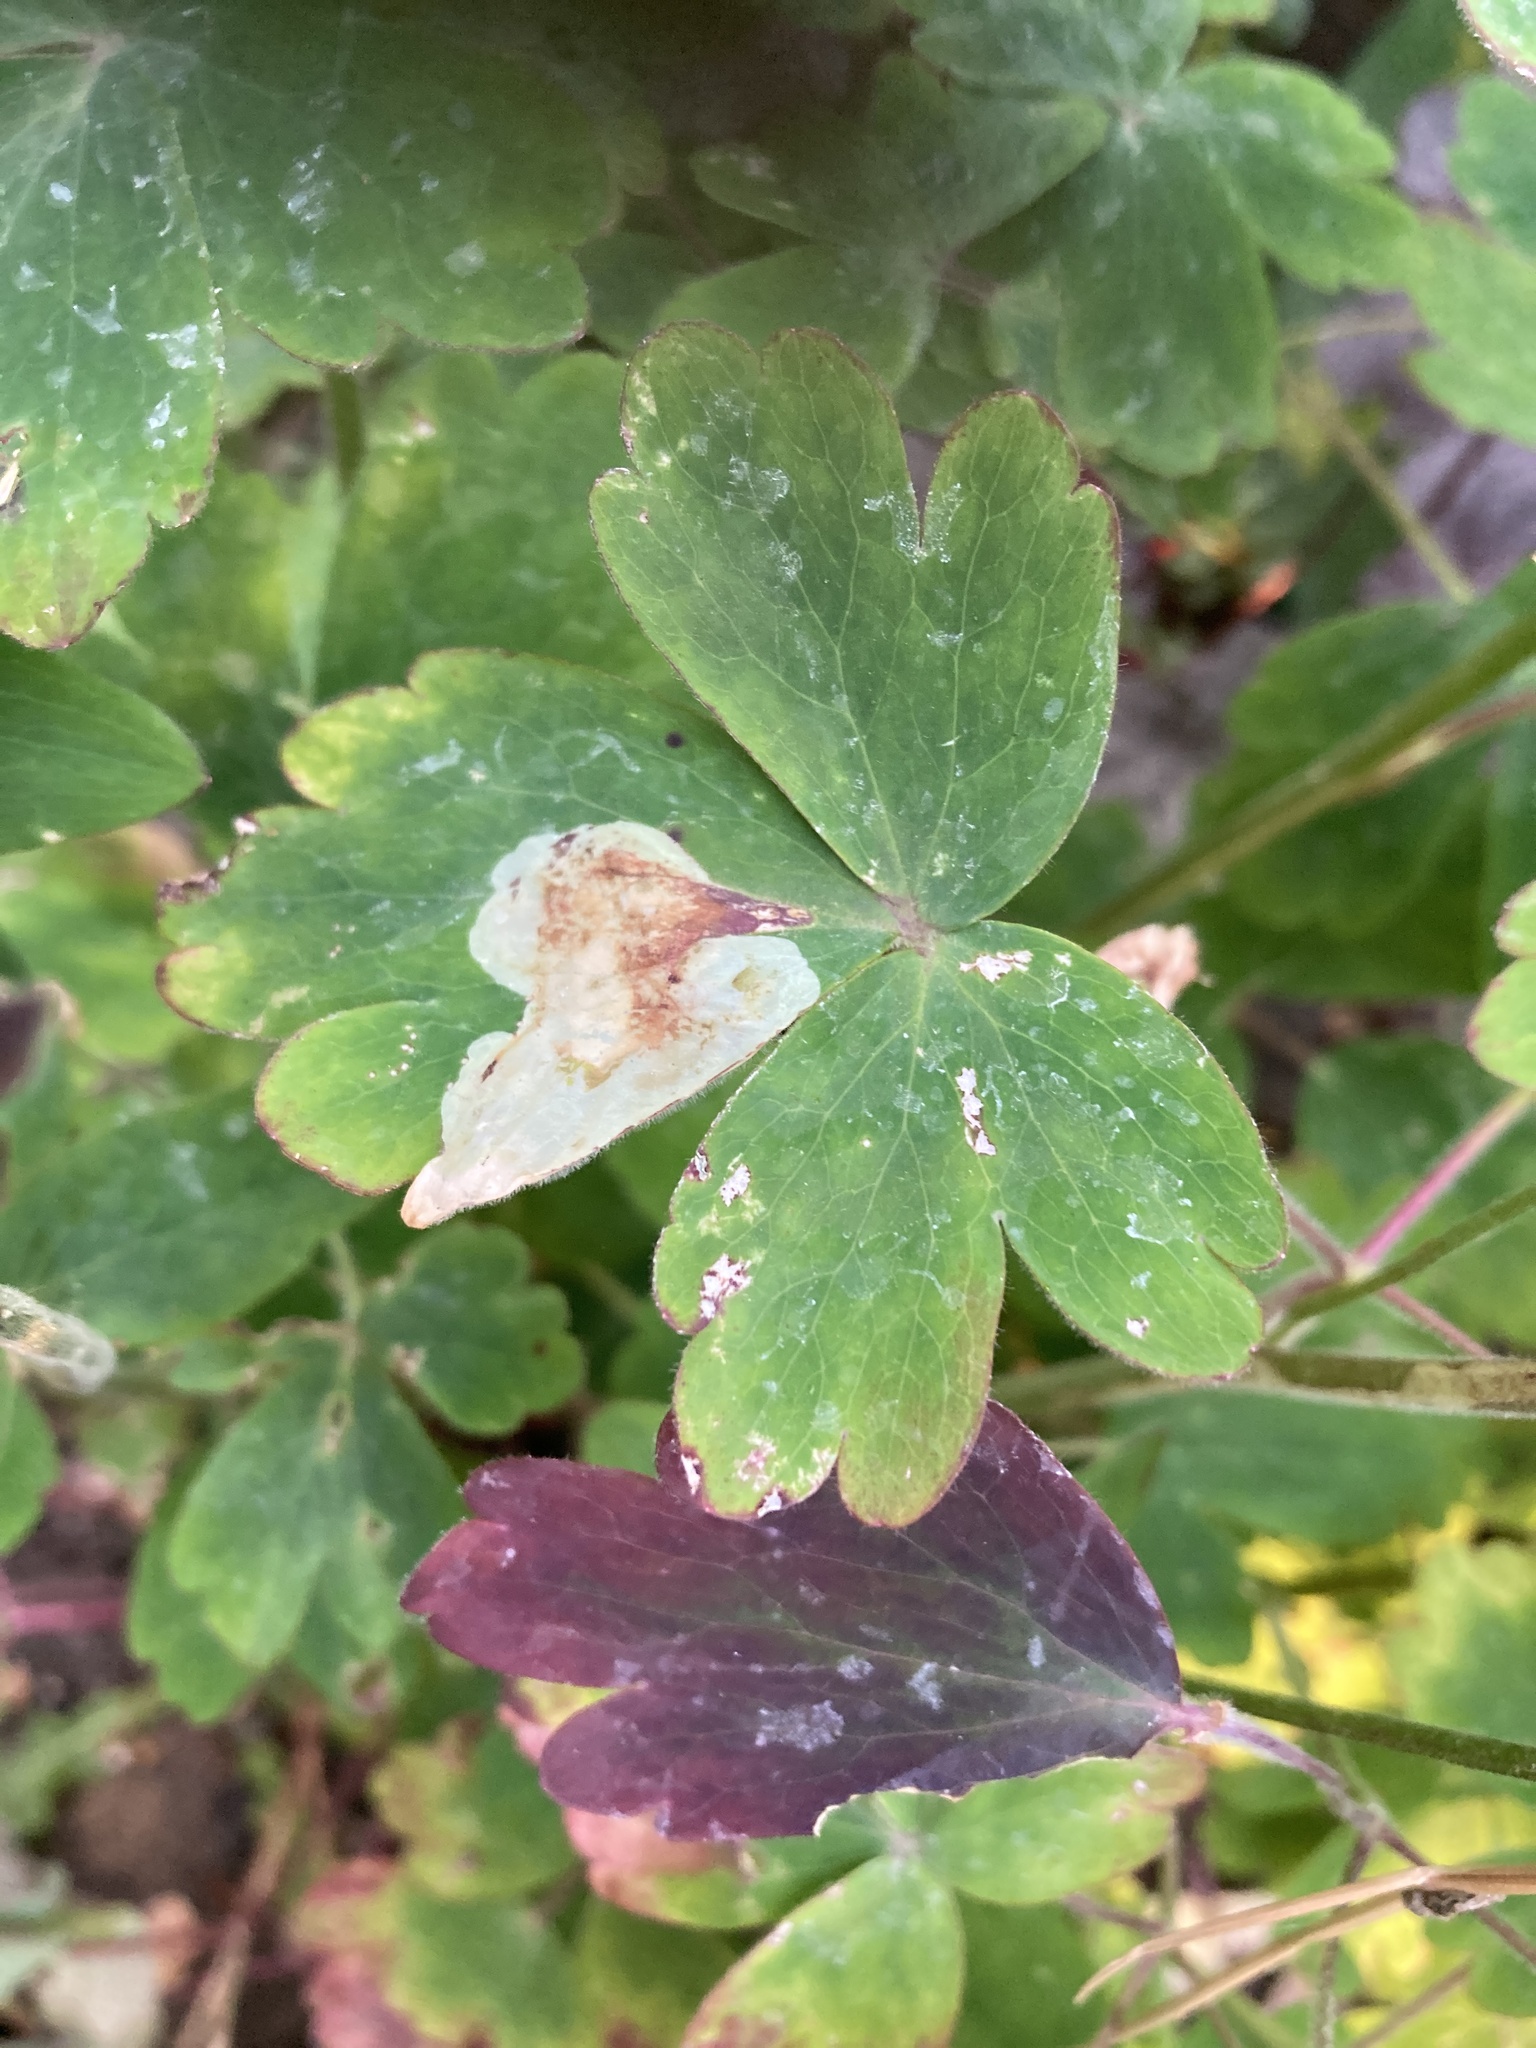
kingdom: Animalia
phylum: Arthropoda
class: Insecta
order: Diptera
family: Agromyzidae
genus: Phytomyza
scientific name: Phytomyza aquilegiae
